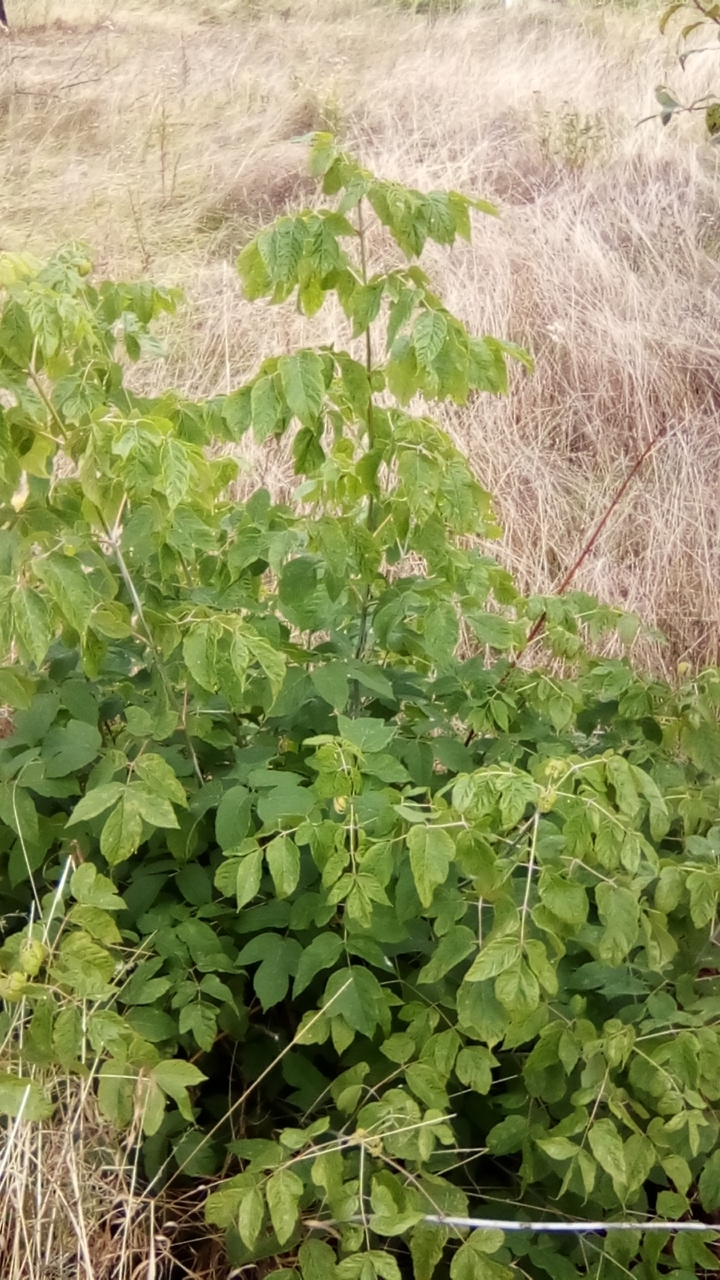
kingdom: Plantae
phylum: Tracheophyta
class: Magnoliopsida
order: Sapindales
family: Sapindaceae
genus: Acer
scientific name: Acer negundo
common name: Ashleaf maple
